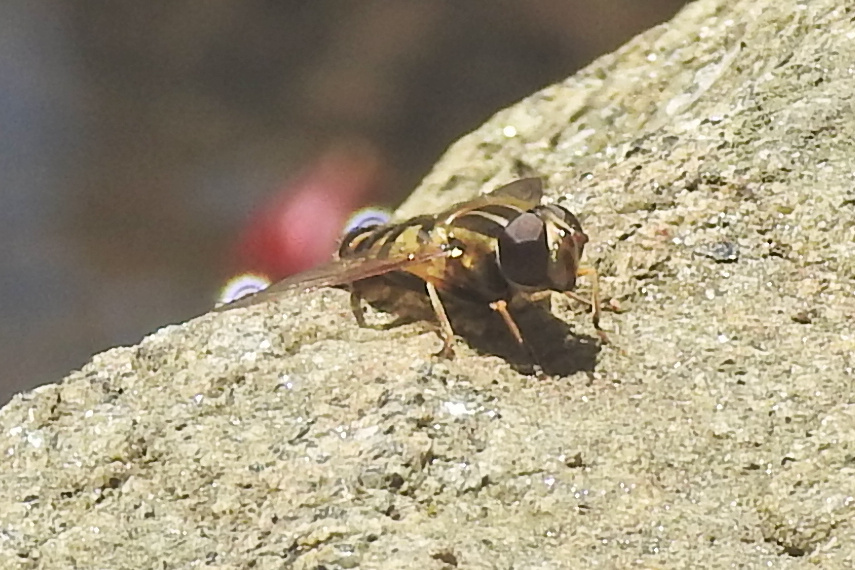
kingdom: Animalia
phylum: Arthropoda
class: Insecta
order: Diptera
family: Syrphidae
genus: Helophilus
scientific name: Helophilus fasciatus
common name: Narrow-headed marsh fly
